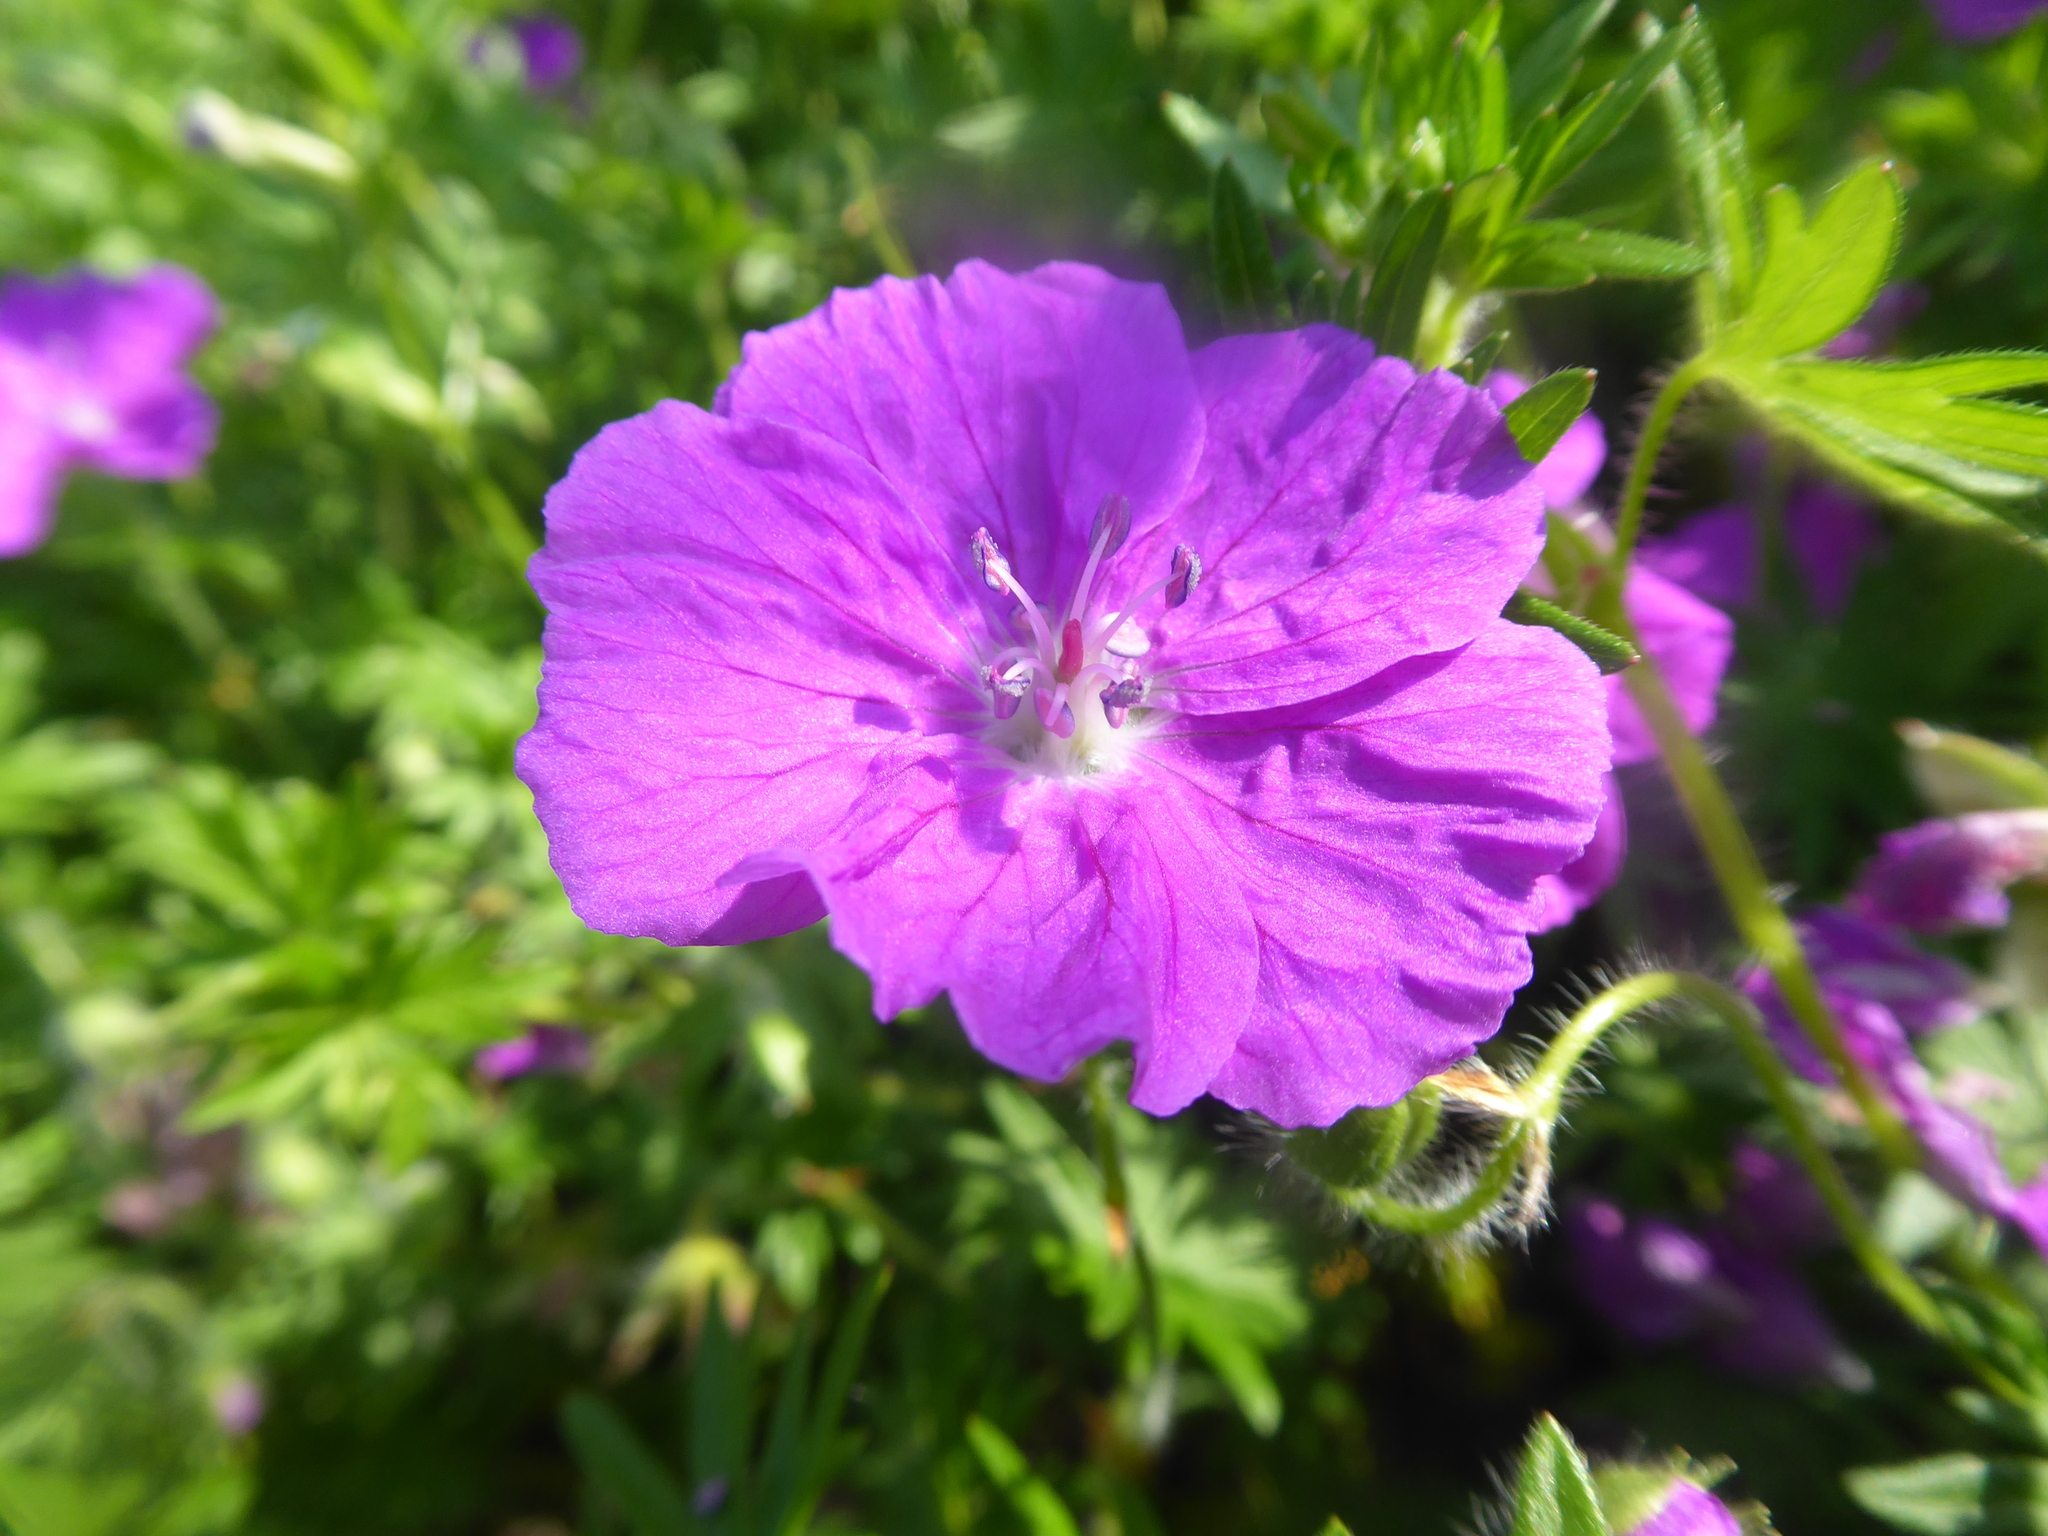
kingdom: Plantae
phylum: Tracheophyta
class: Magnoliopsida
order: Geraniales
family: Geraniaceae
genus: Geranium
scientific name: Geranium sanguineum
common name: Bloody crane's-bill
